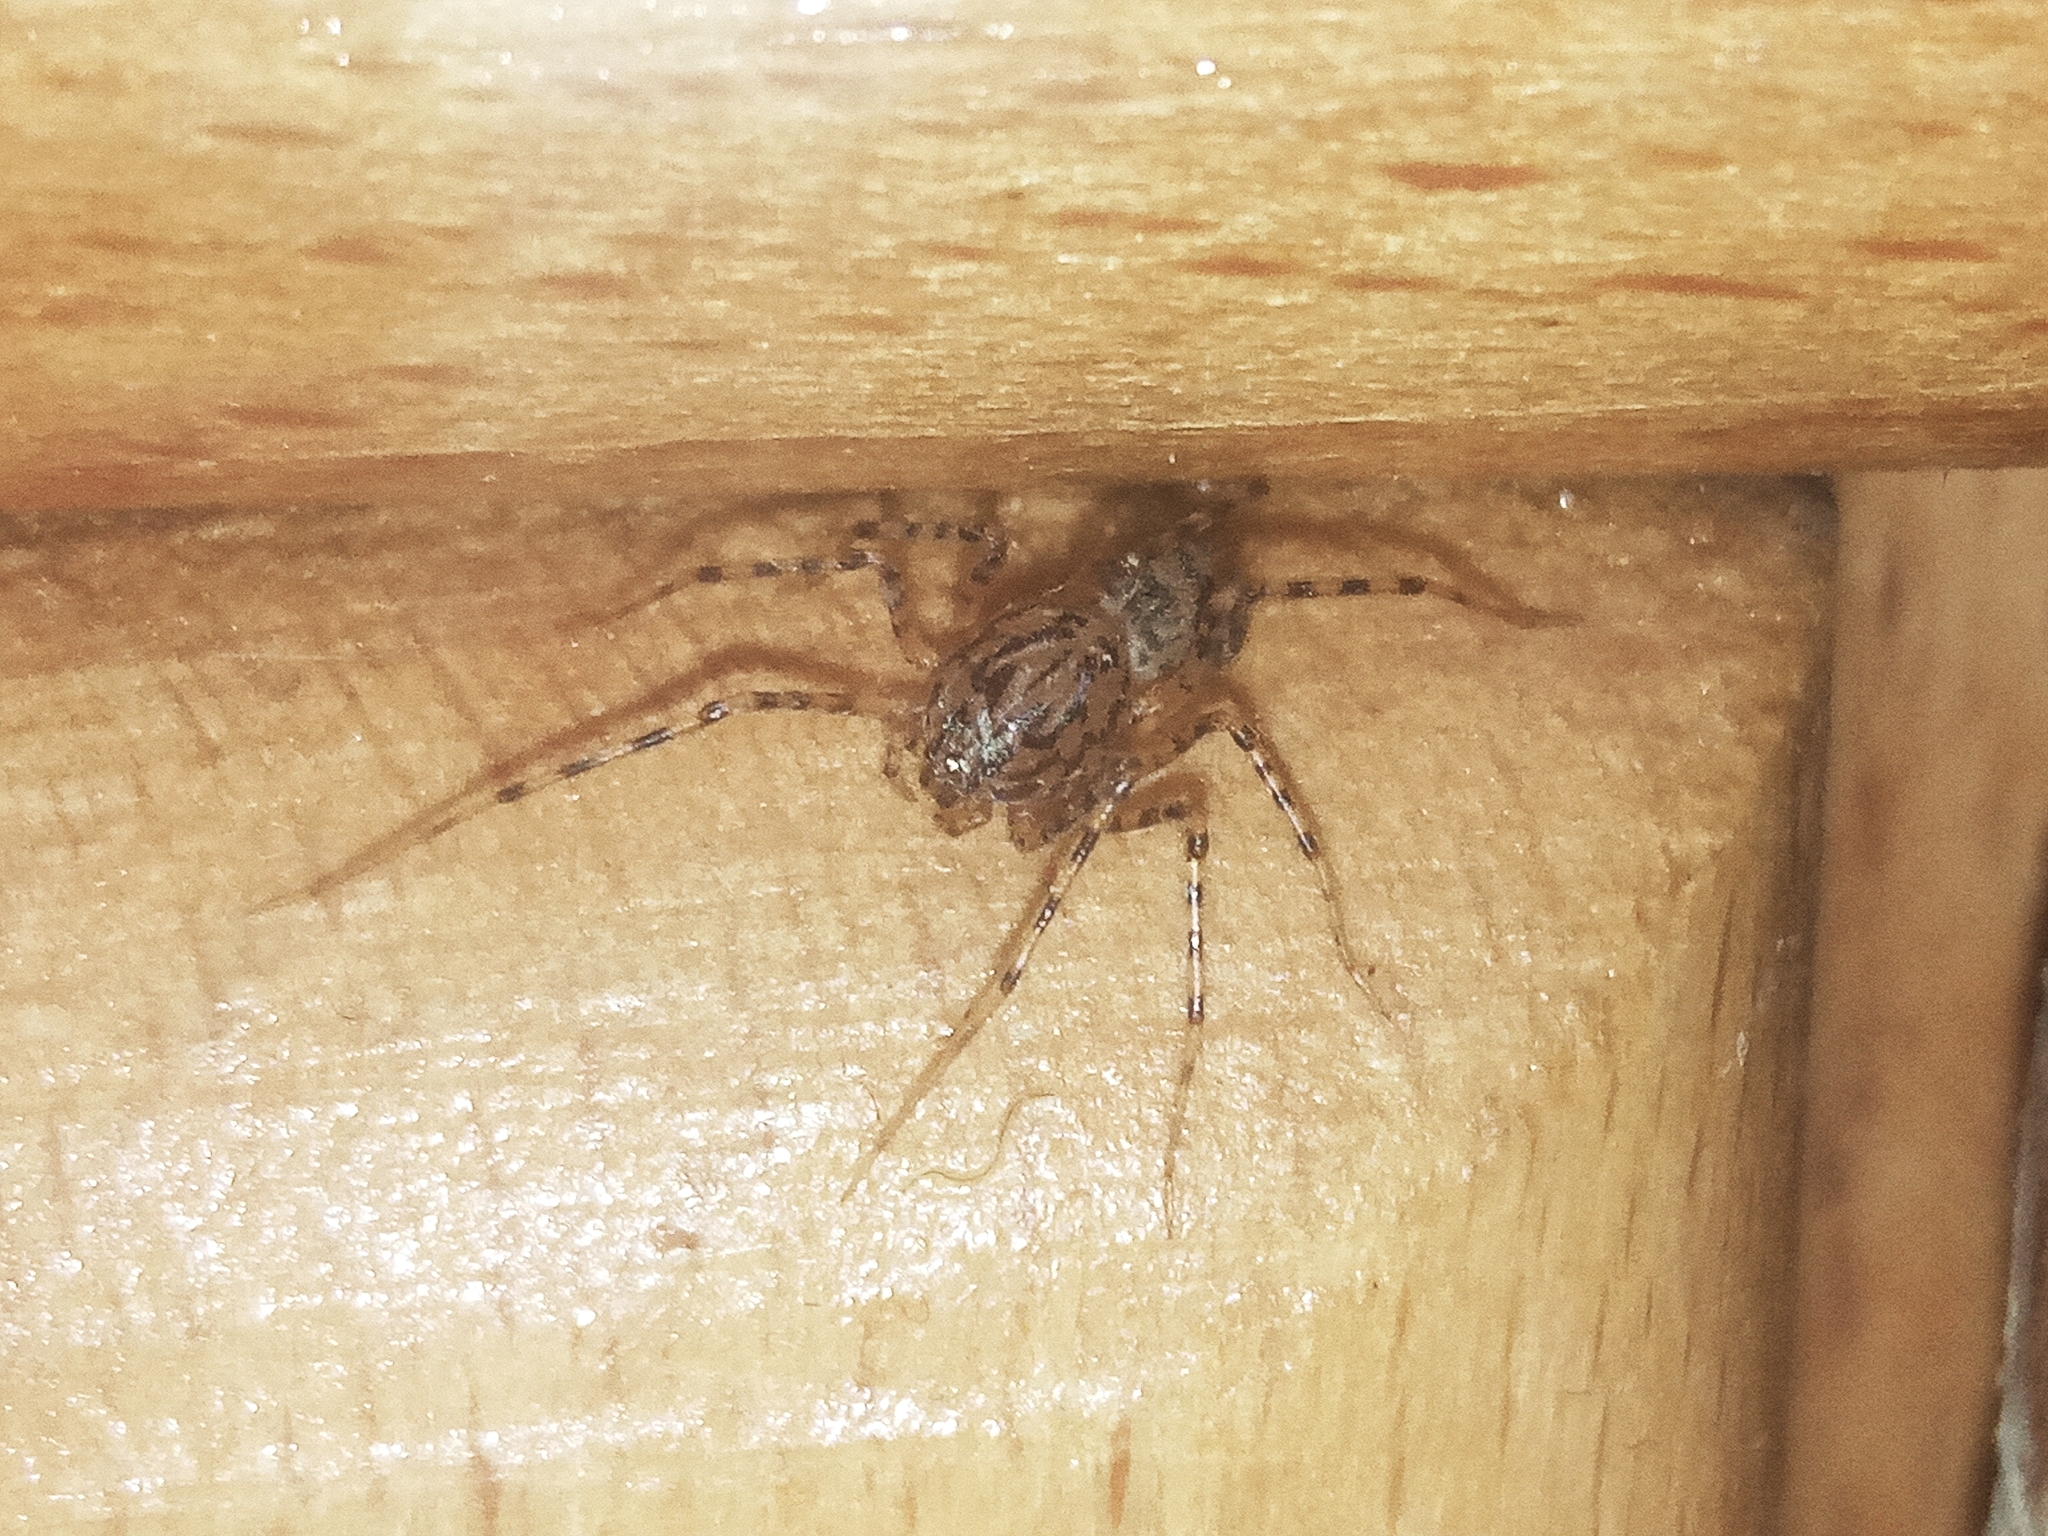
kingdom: Animalia
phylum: Arthropoda
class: Arachnida
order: Araneae
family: Scytodidae
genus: Scytodes
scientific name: Scytodes thoracica
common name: Spitting spider
